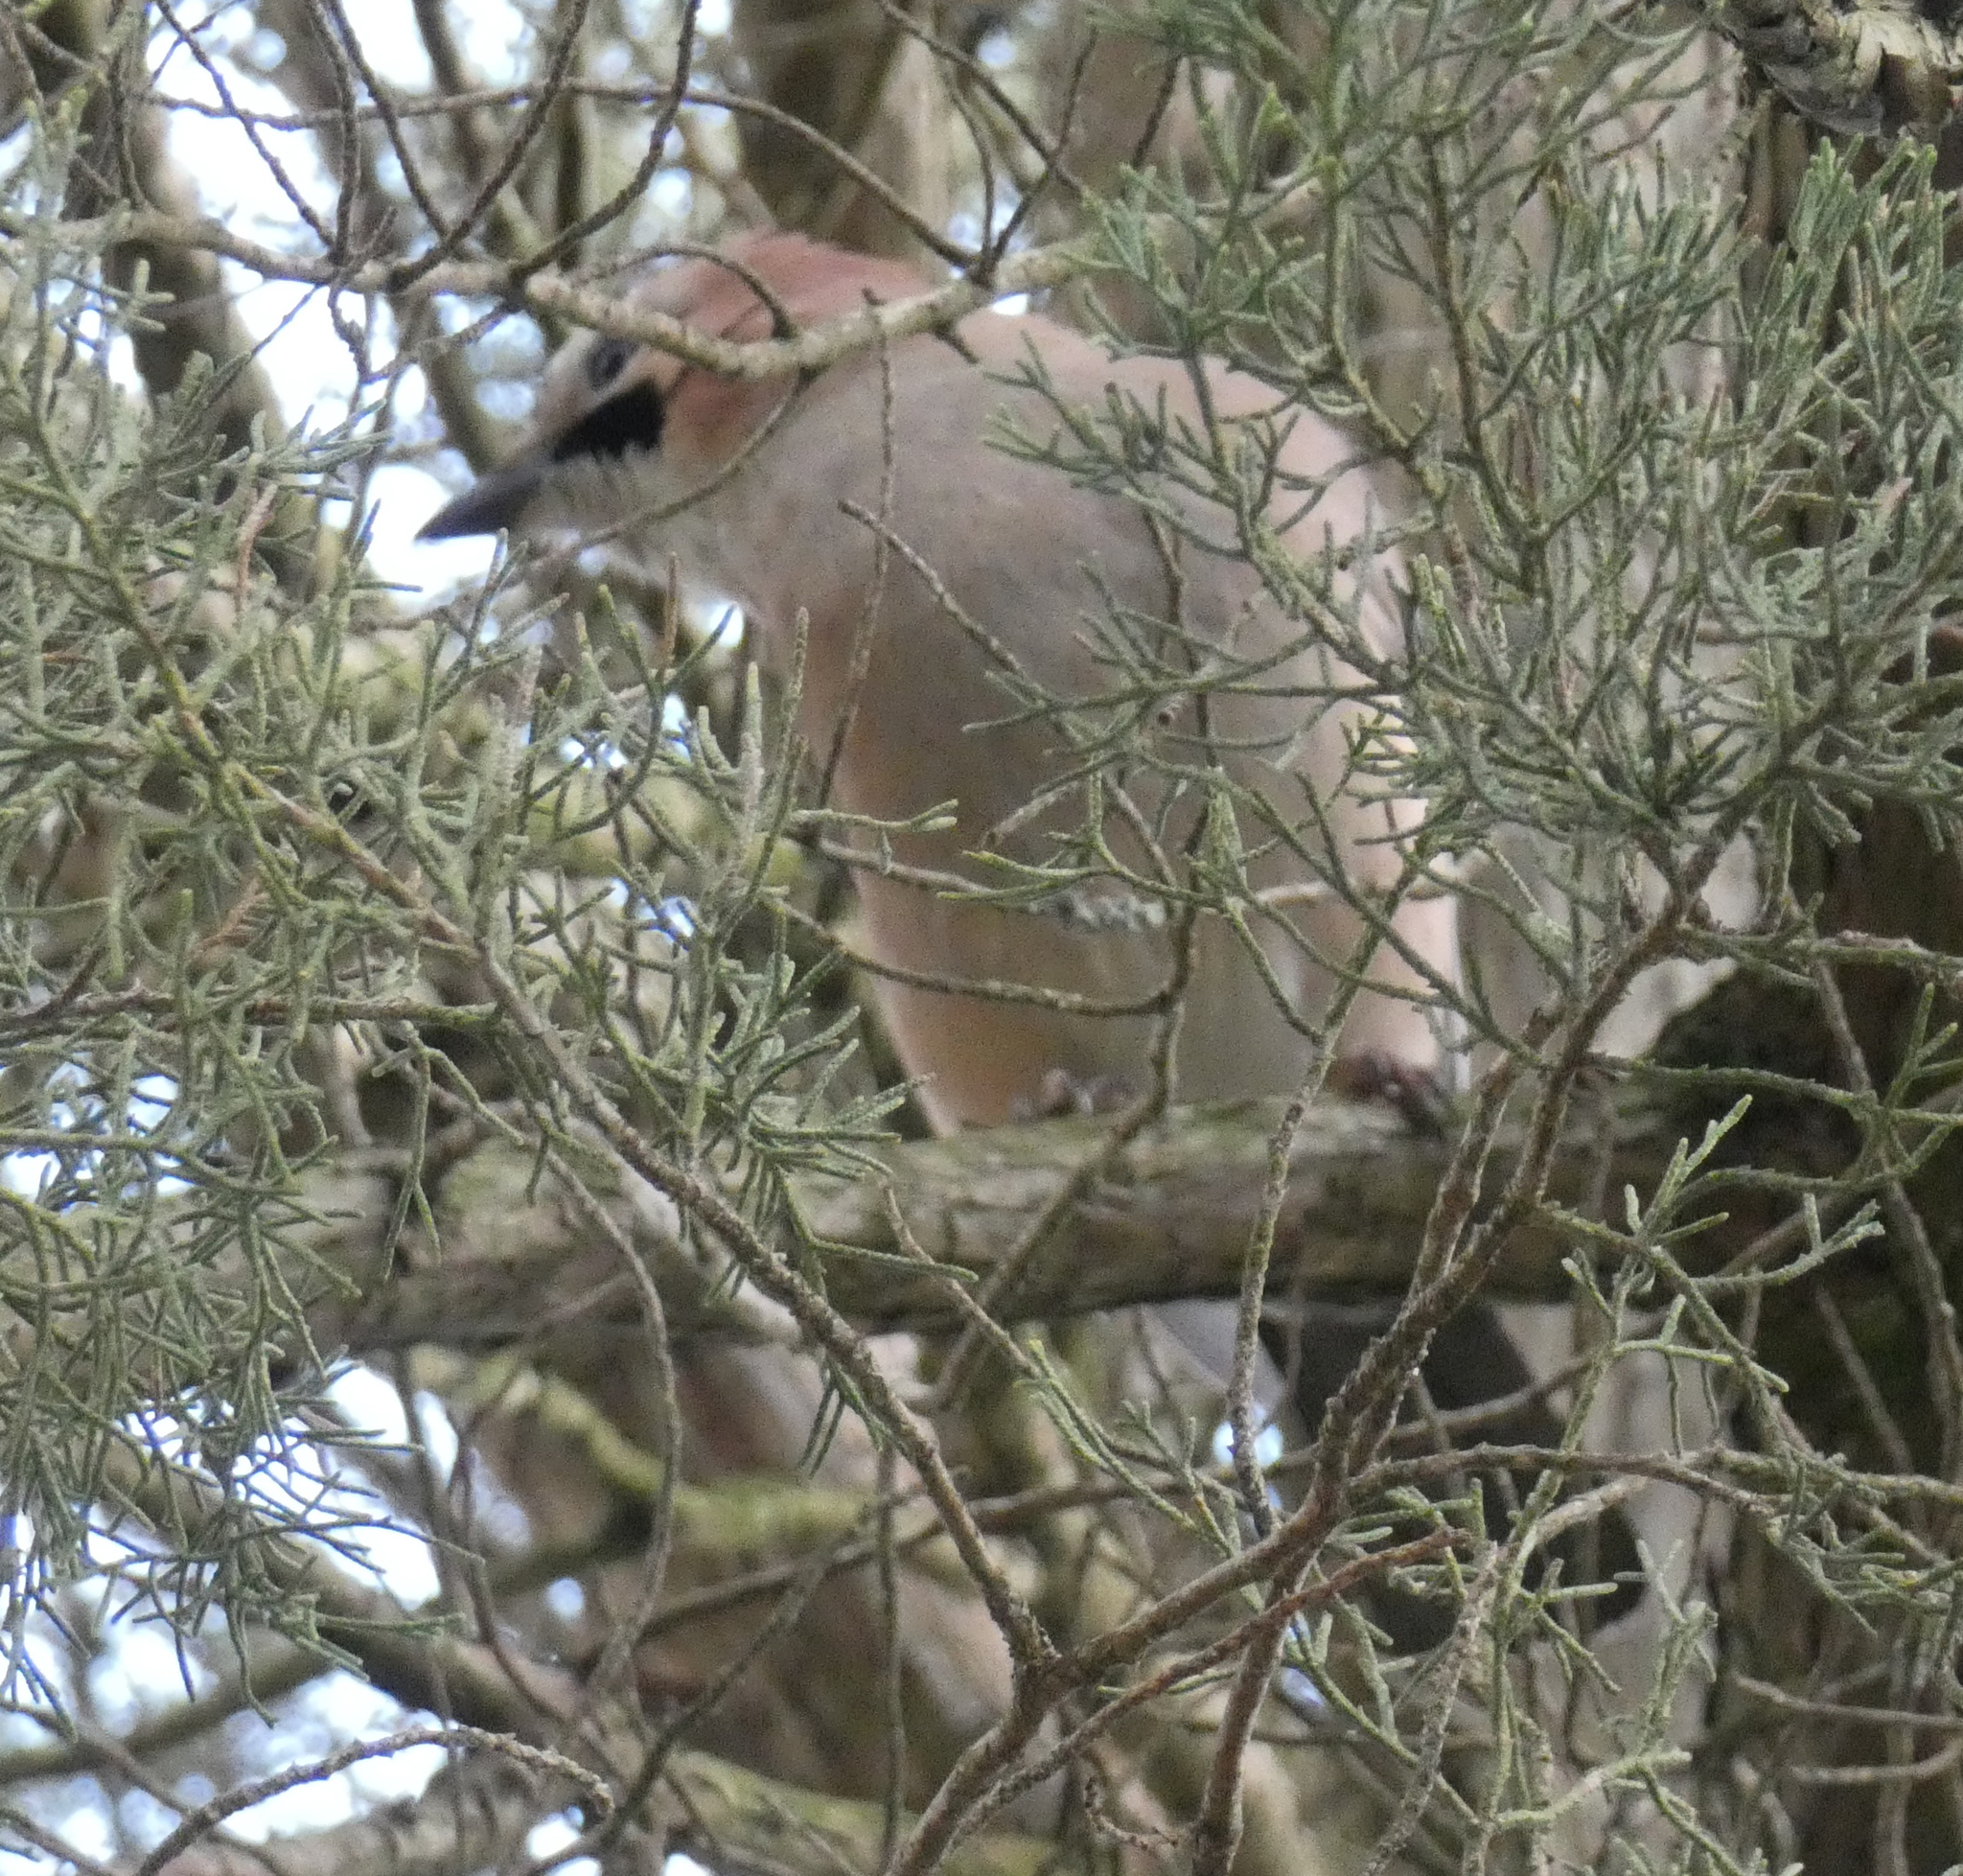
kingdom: Animalia
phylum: Chordata
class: Aves
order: Passeriformes
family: Corvidae
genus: Garrulus
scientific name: Garrulus glandarius
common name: Eurasian jay
